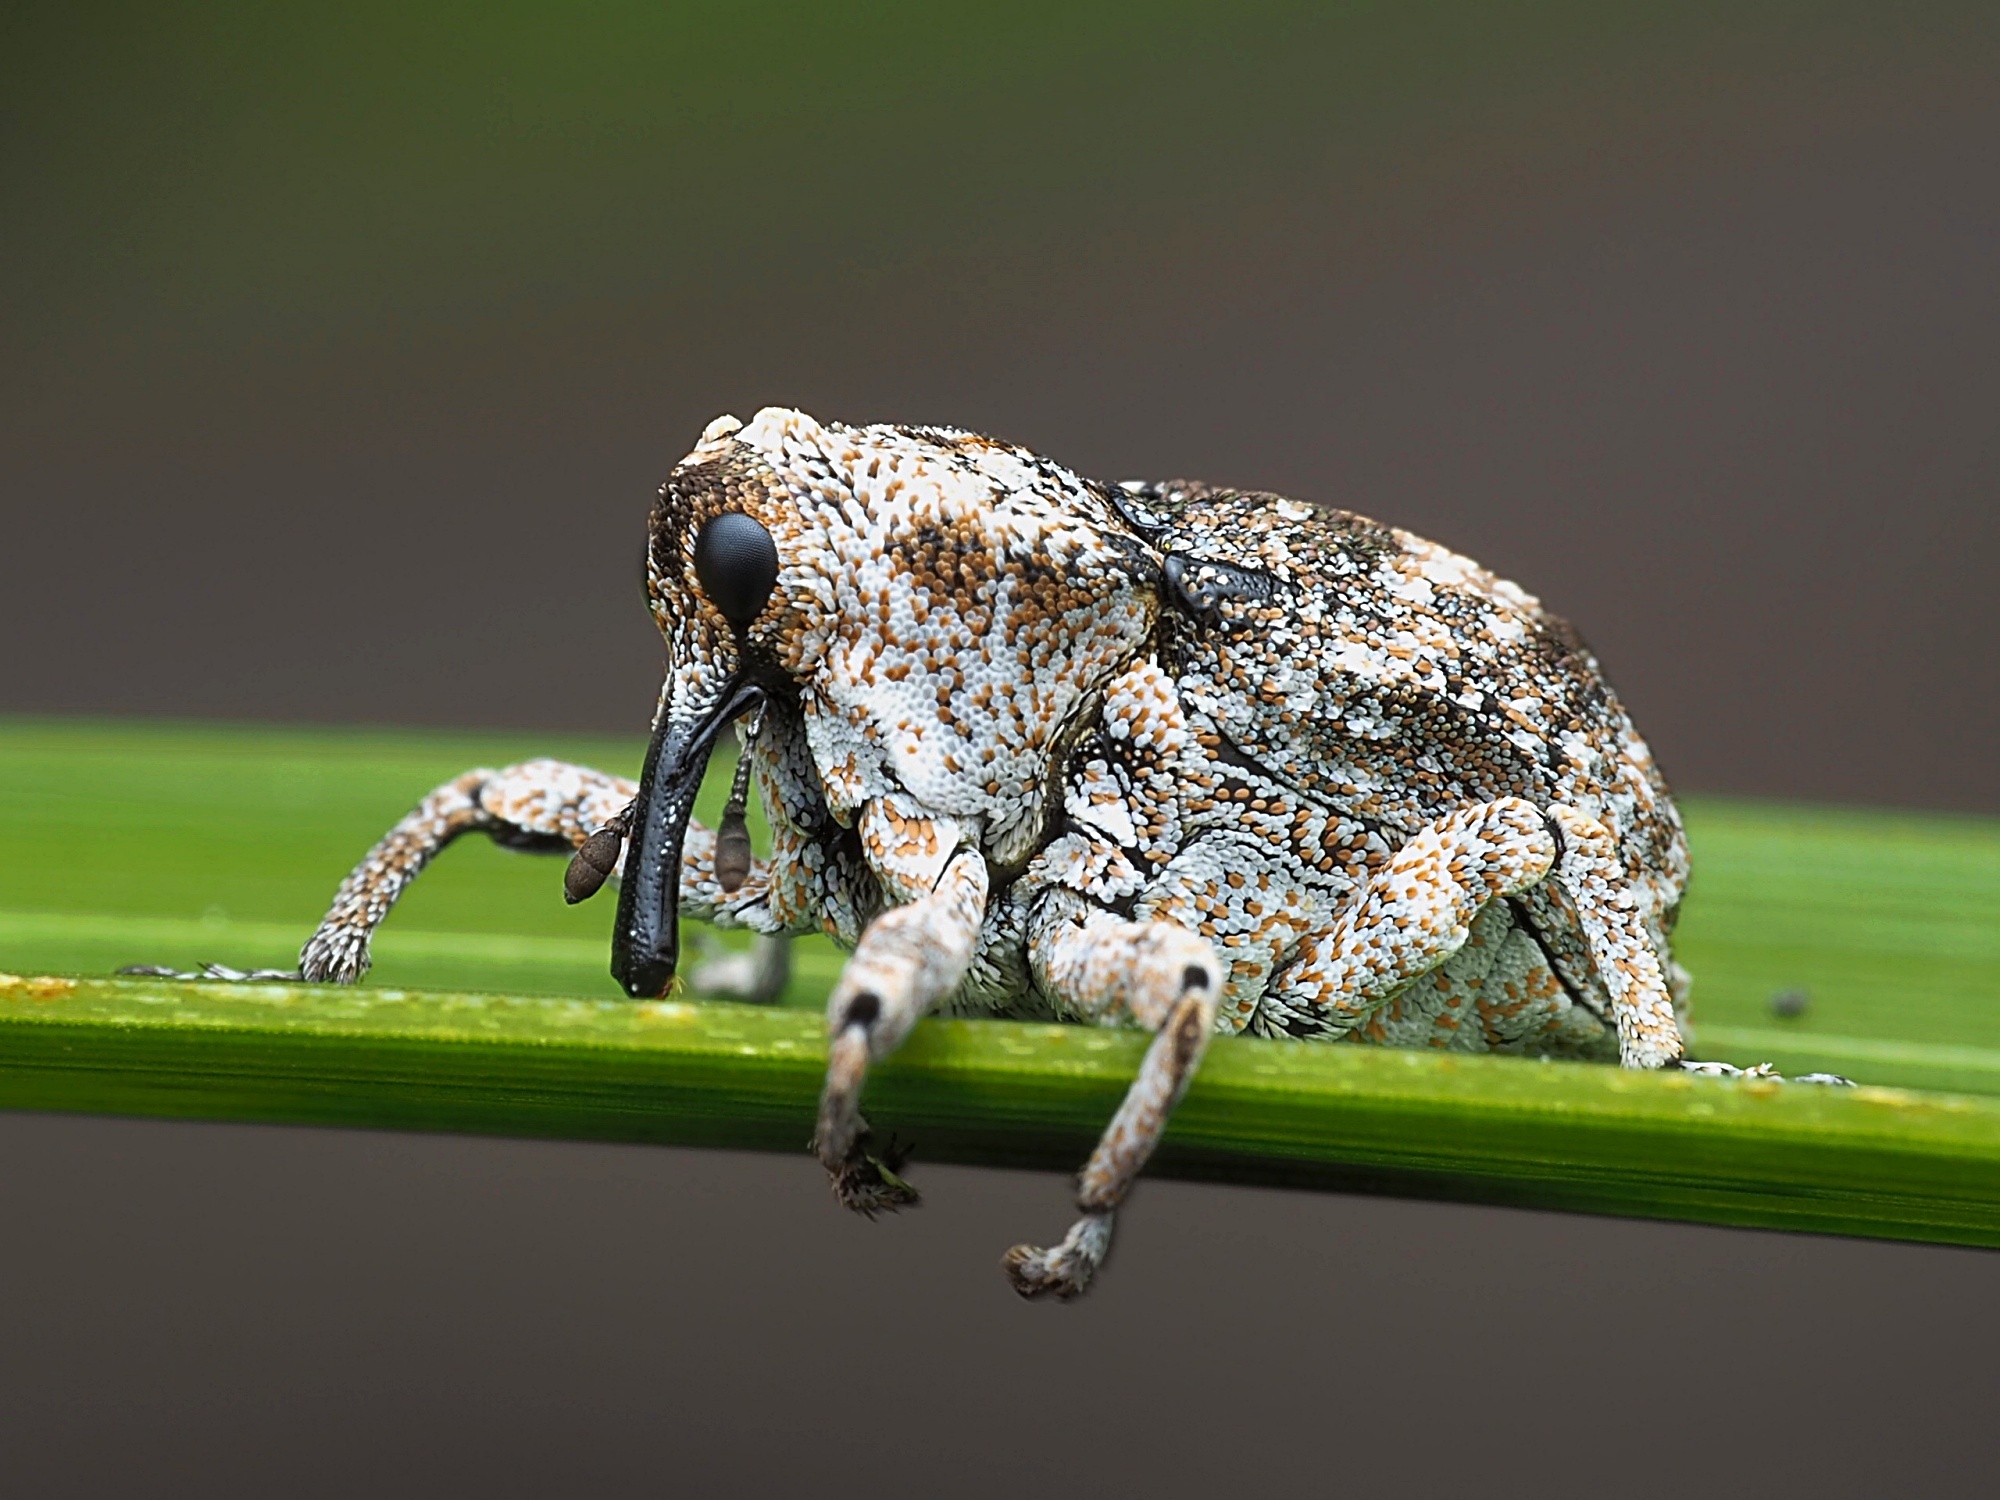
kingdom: Animalia
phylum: Arthropoda
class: Insecta
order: Coleoptera
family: Curculionidae
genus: Euthyrhinus
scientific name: Euthyrhinus squamiger
